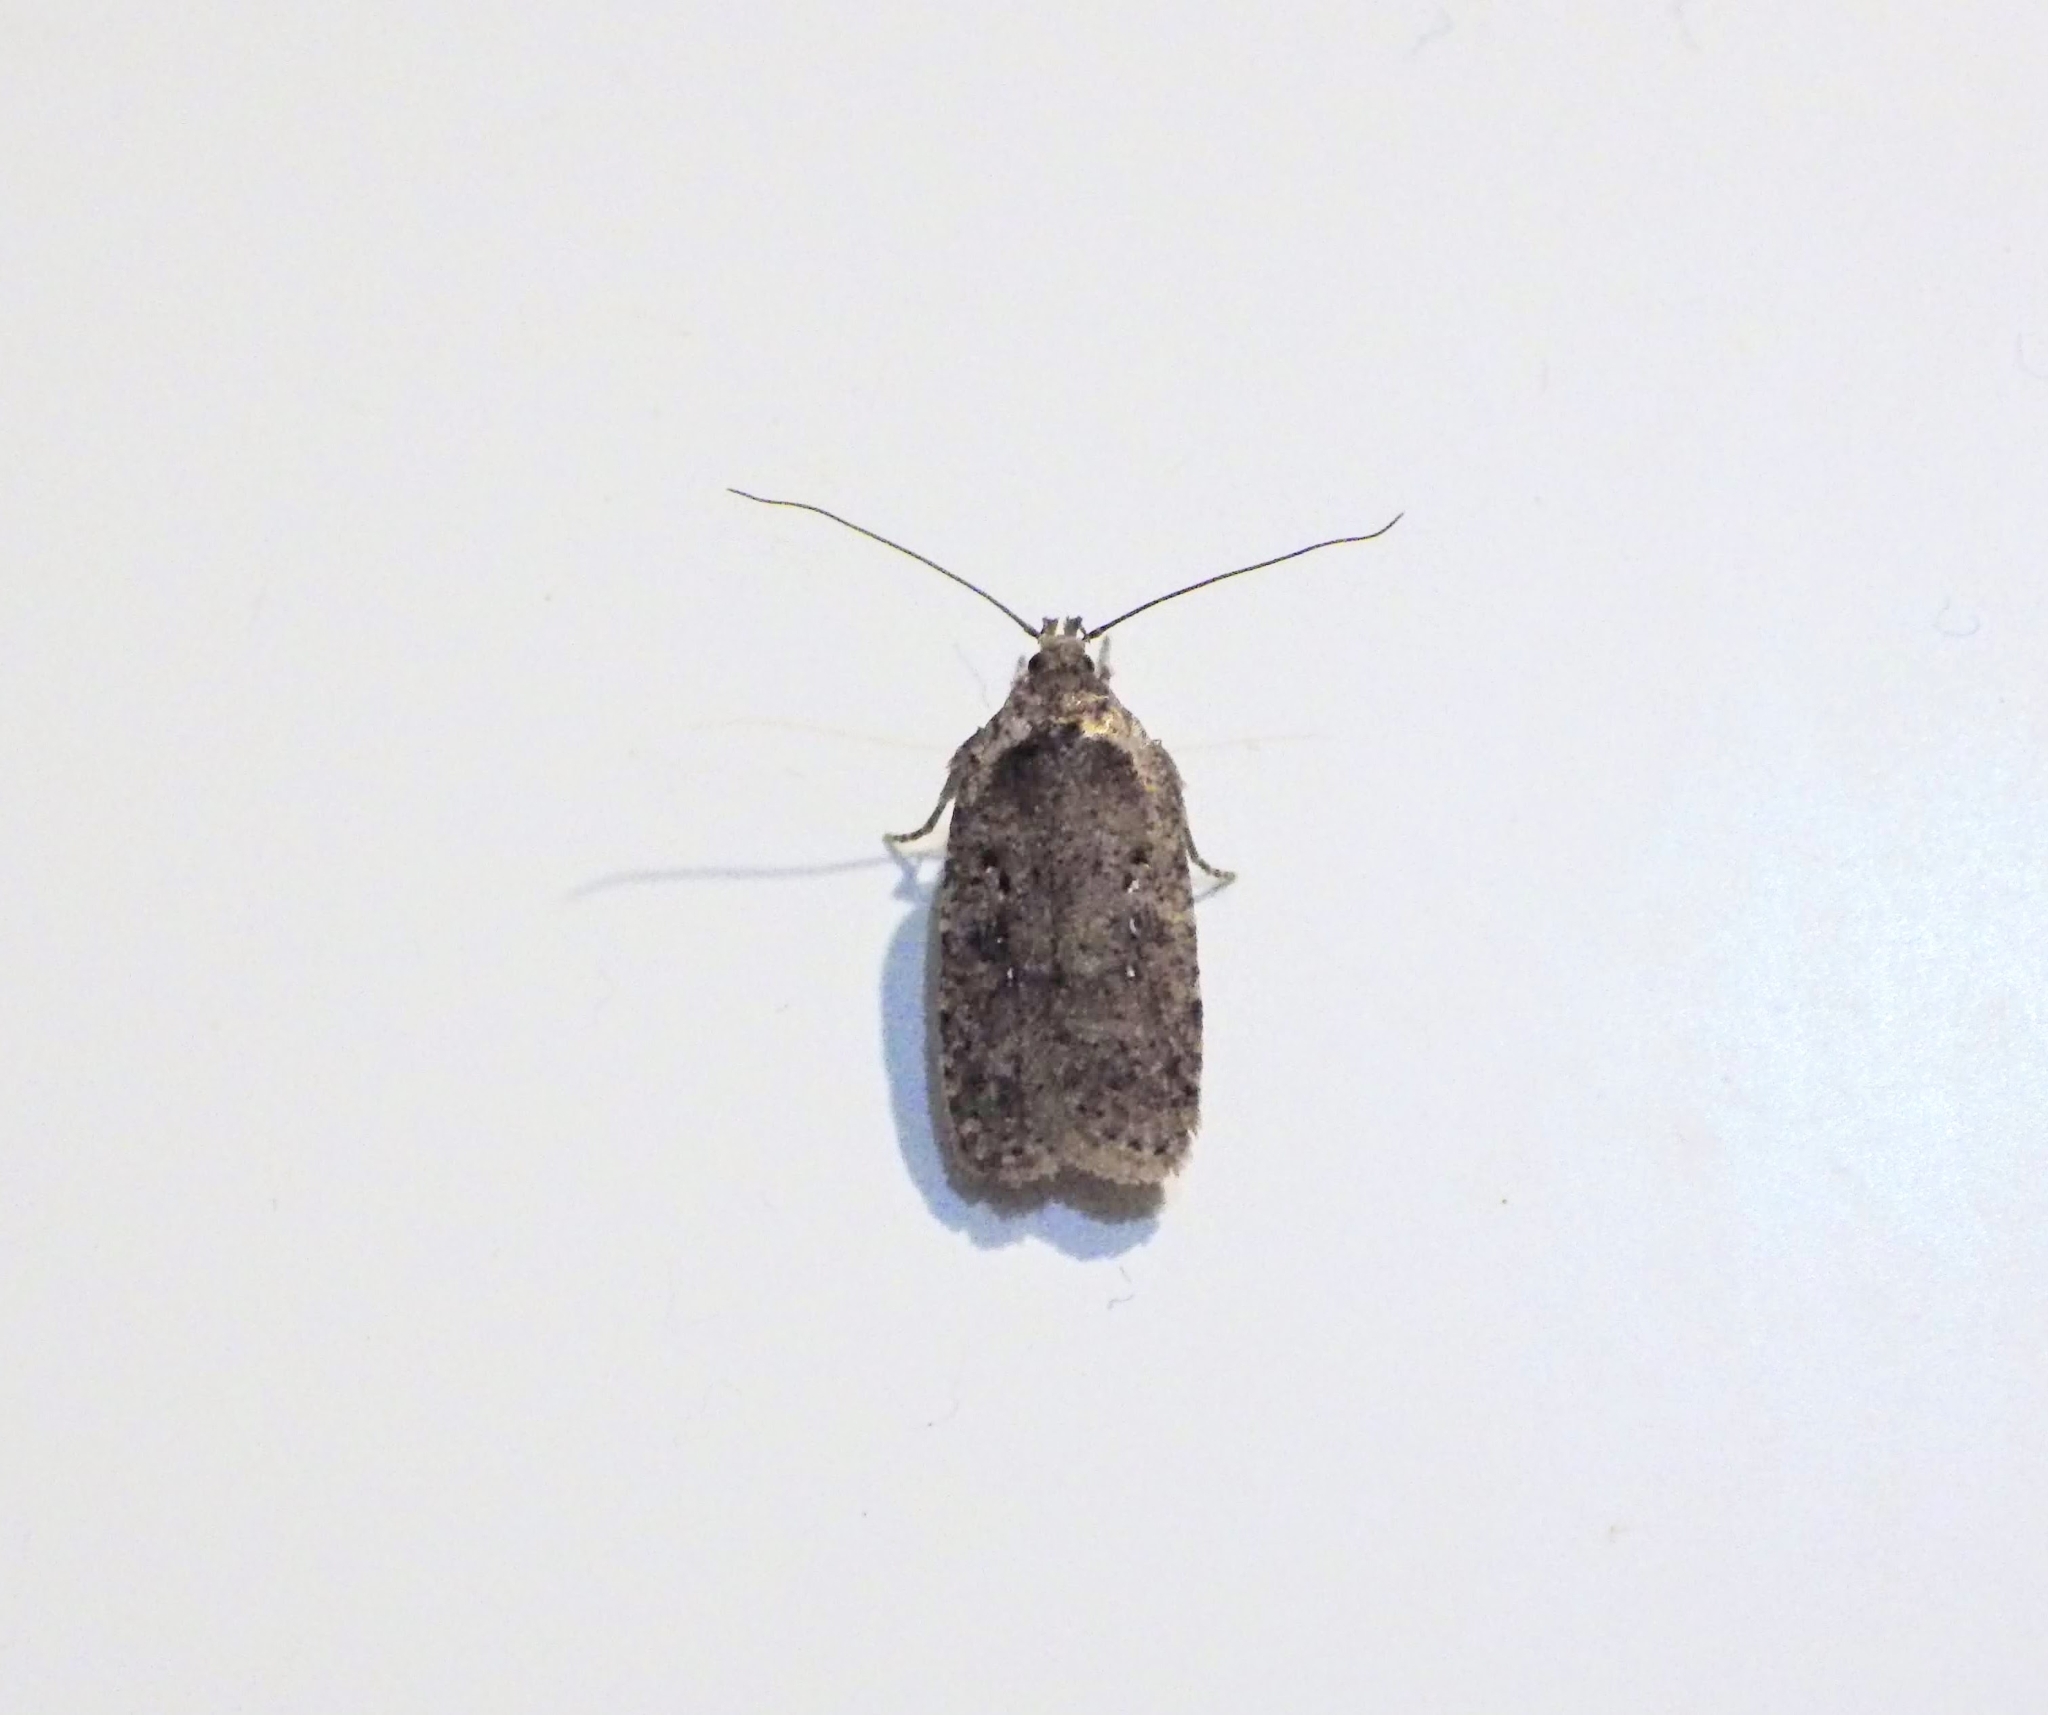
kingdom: Animalia
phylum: Arthropoda
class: Insecta
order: Lepidoptera
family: Depressariidae
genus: Agonopterix
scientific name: Agonopterix
